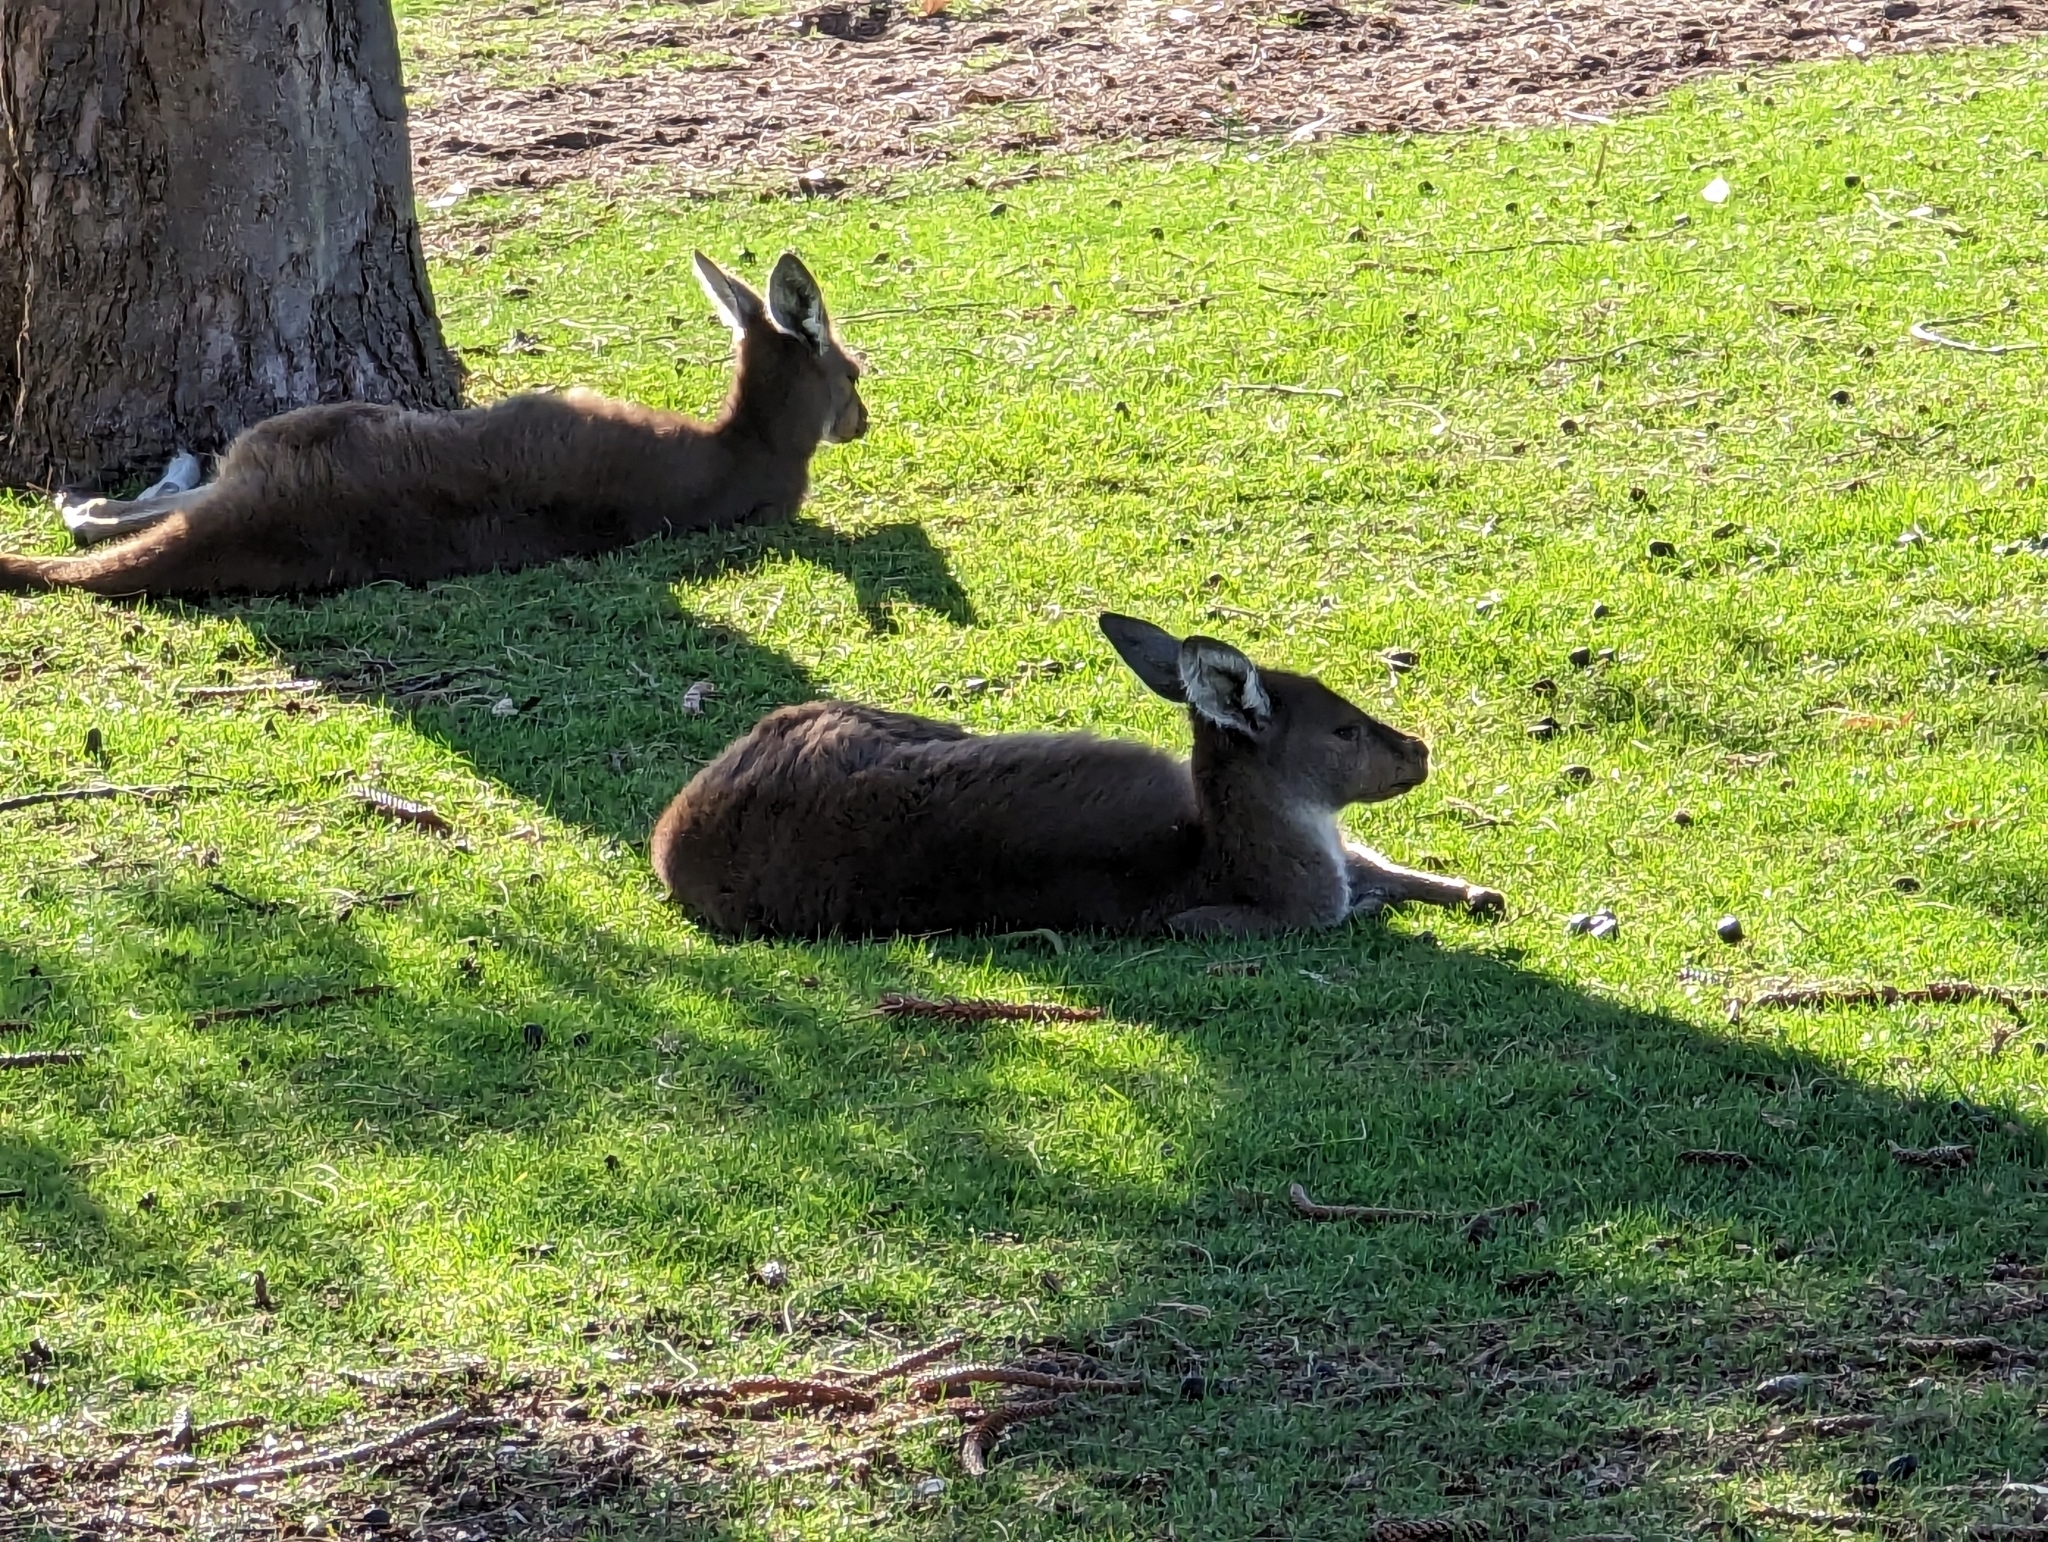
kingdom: Animalia
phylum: Chordata
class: Mammalia
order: Diprotodontia
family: Macropodidae
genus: Macropus
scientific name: Macropus fuliginosus
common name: Western grey kangaroo
